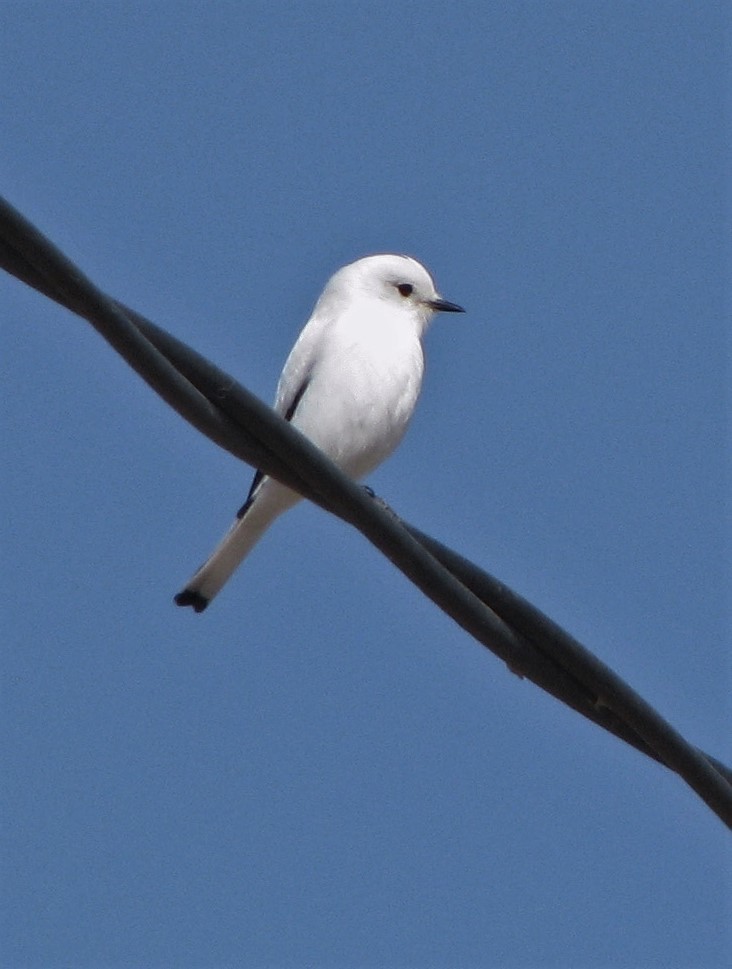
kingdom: Animalia
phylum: Chordata
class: Aves
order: Passeriformes
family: Tyrannidae
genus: Xolmis
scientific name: Xolmis irupero
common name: White monjita
